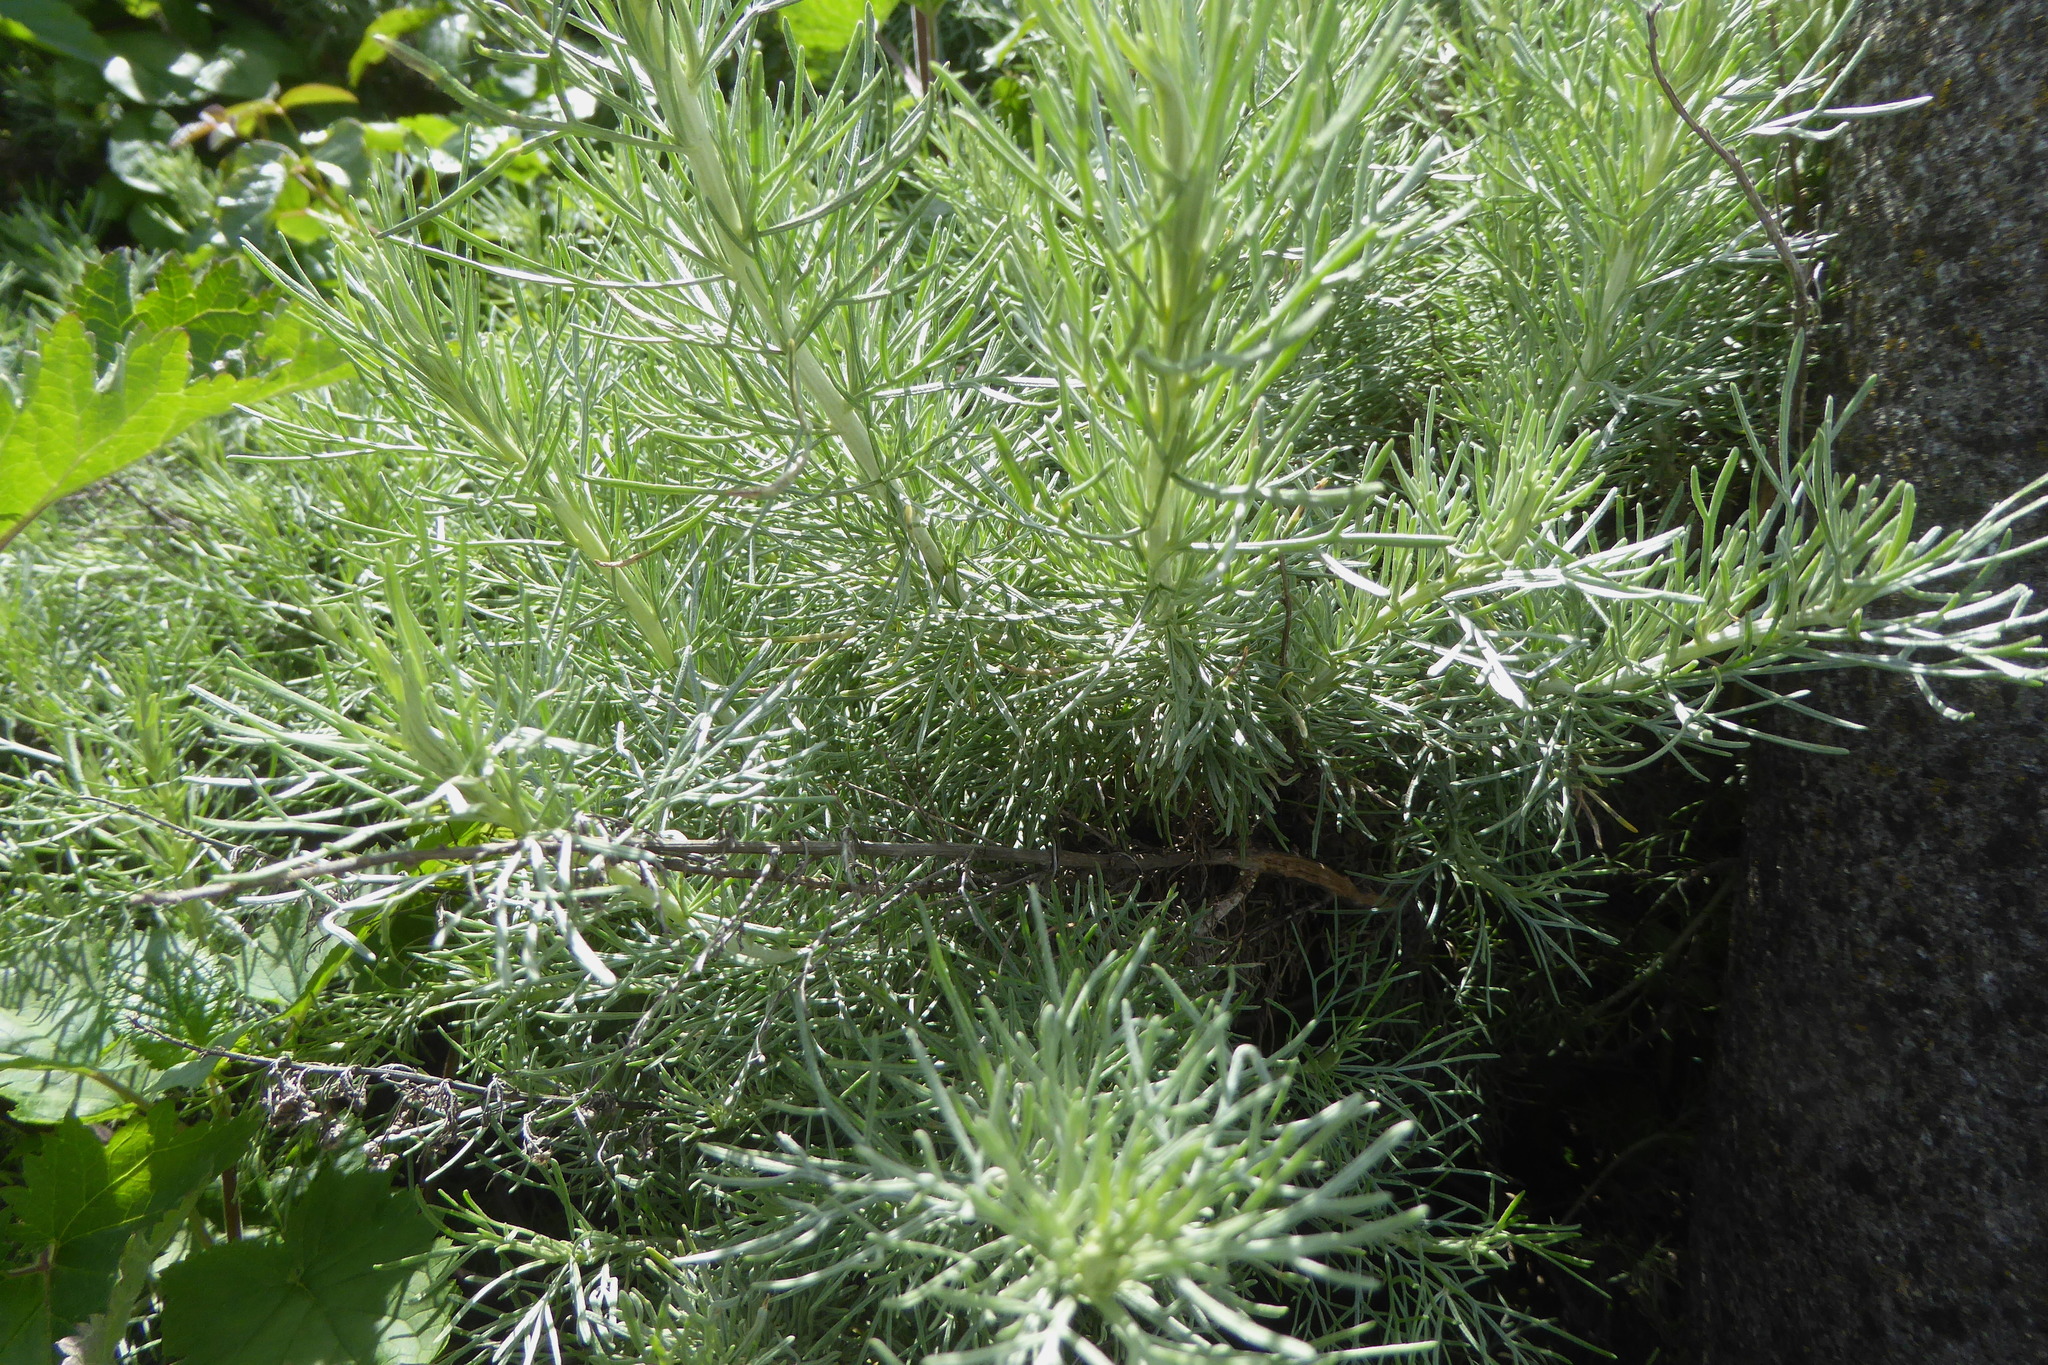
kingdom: Plantae
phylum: Tracheophyta
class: Magnoliopsida
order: Asterales
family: Asteraceae
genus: Artemisia
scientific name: Artemisia californica
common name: California sagebrush
